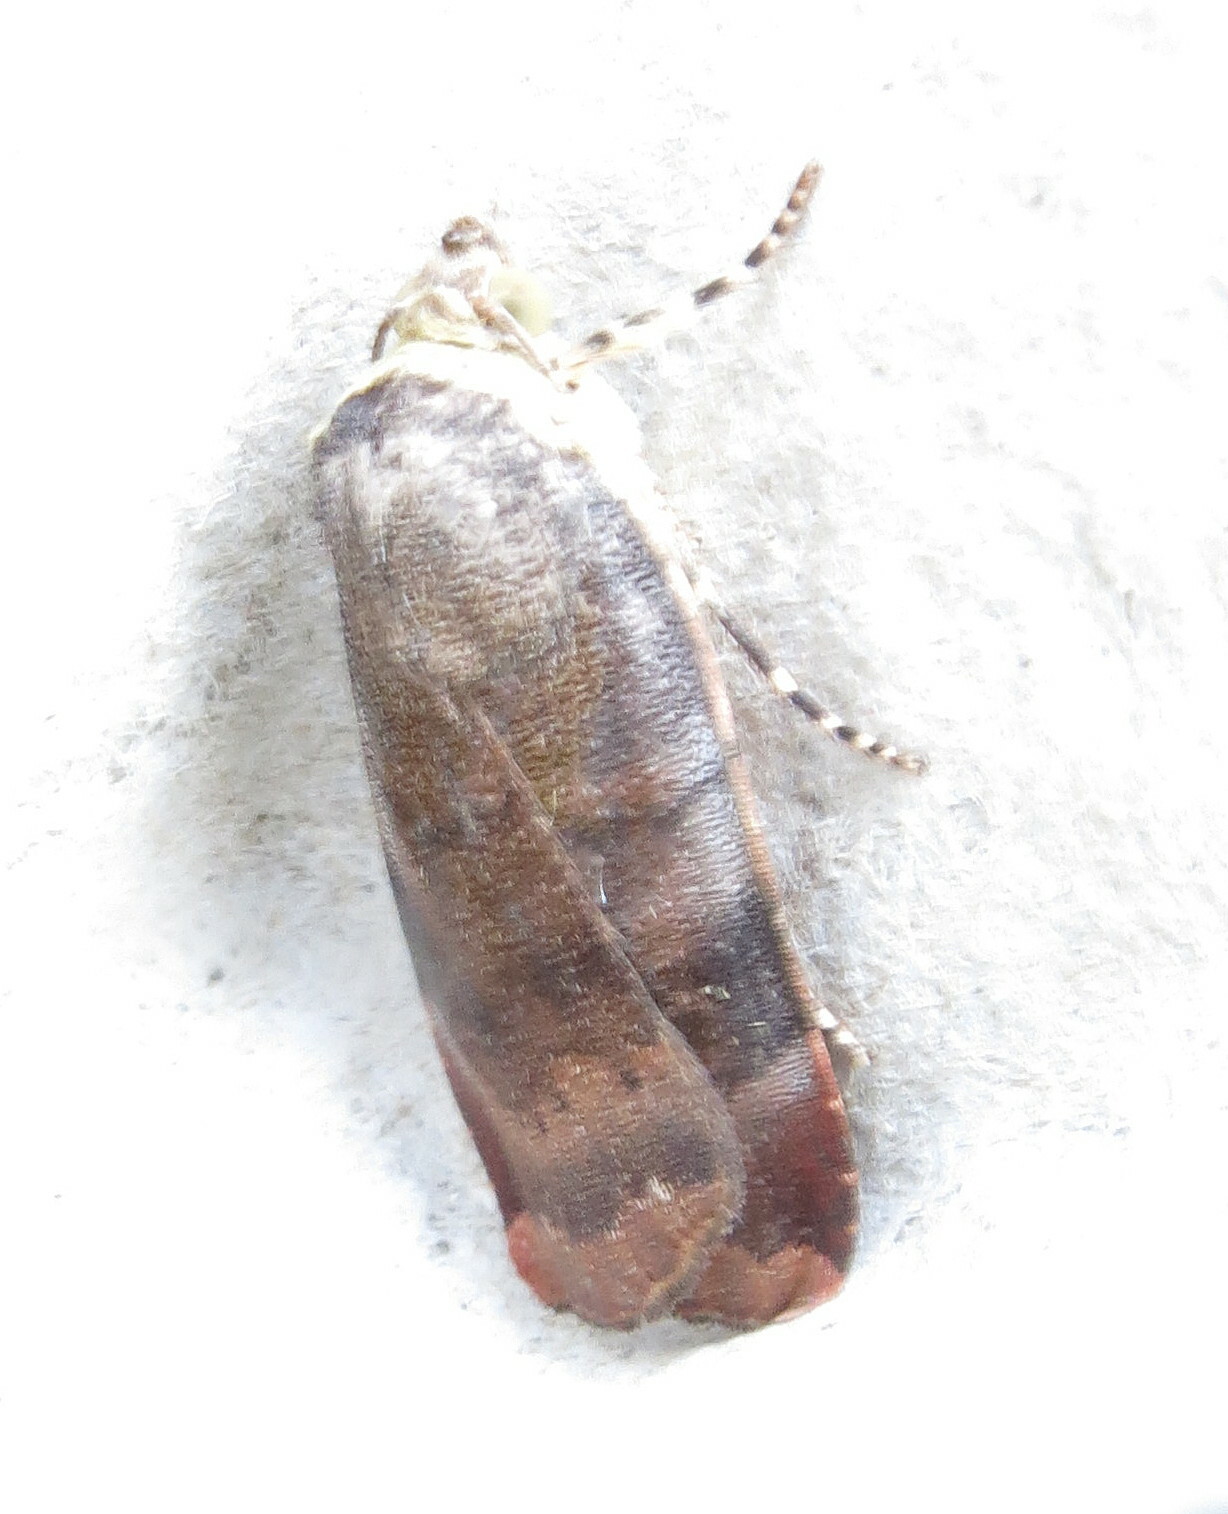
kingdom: Animalia
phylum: Arthropoda
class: Insecta
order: Lepidoptera
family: Noctuidae
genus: Noctua
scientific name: Noctua janthe
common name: Lesser broad-bordered yellow underwing
